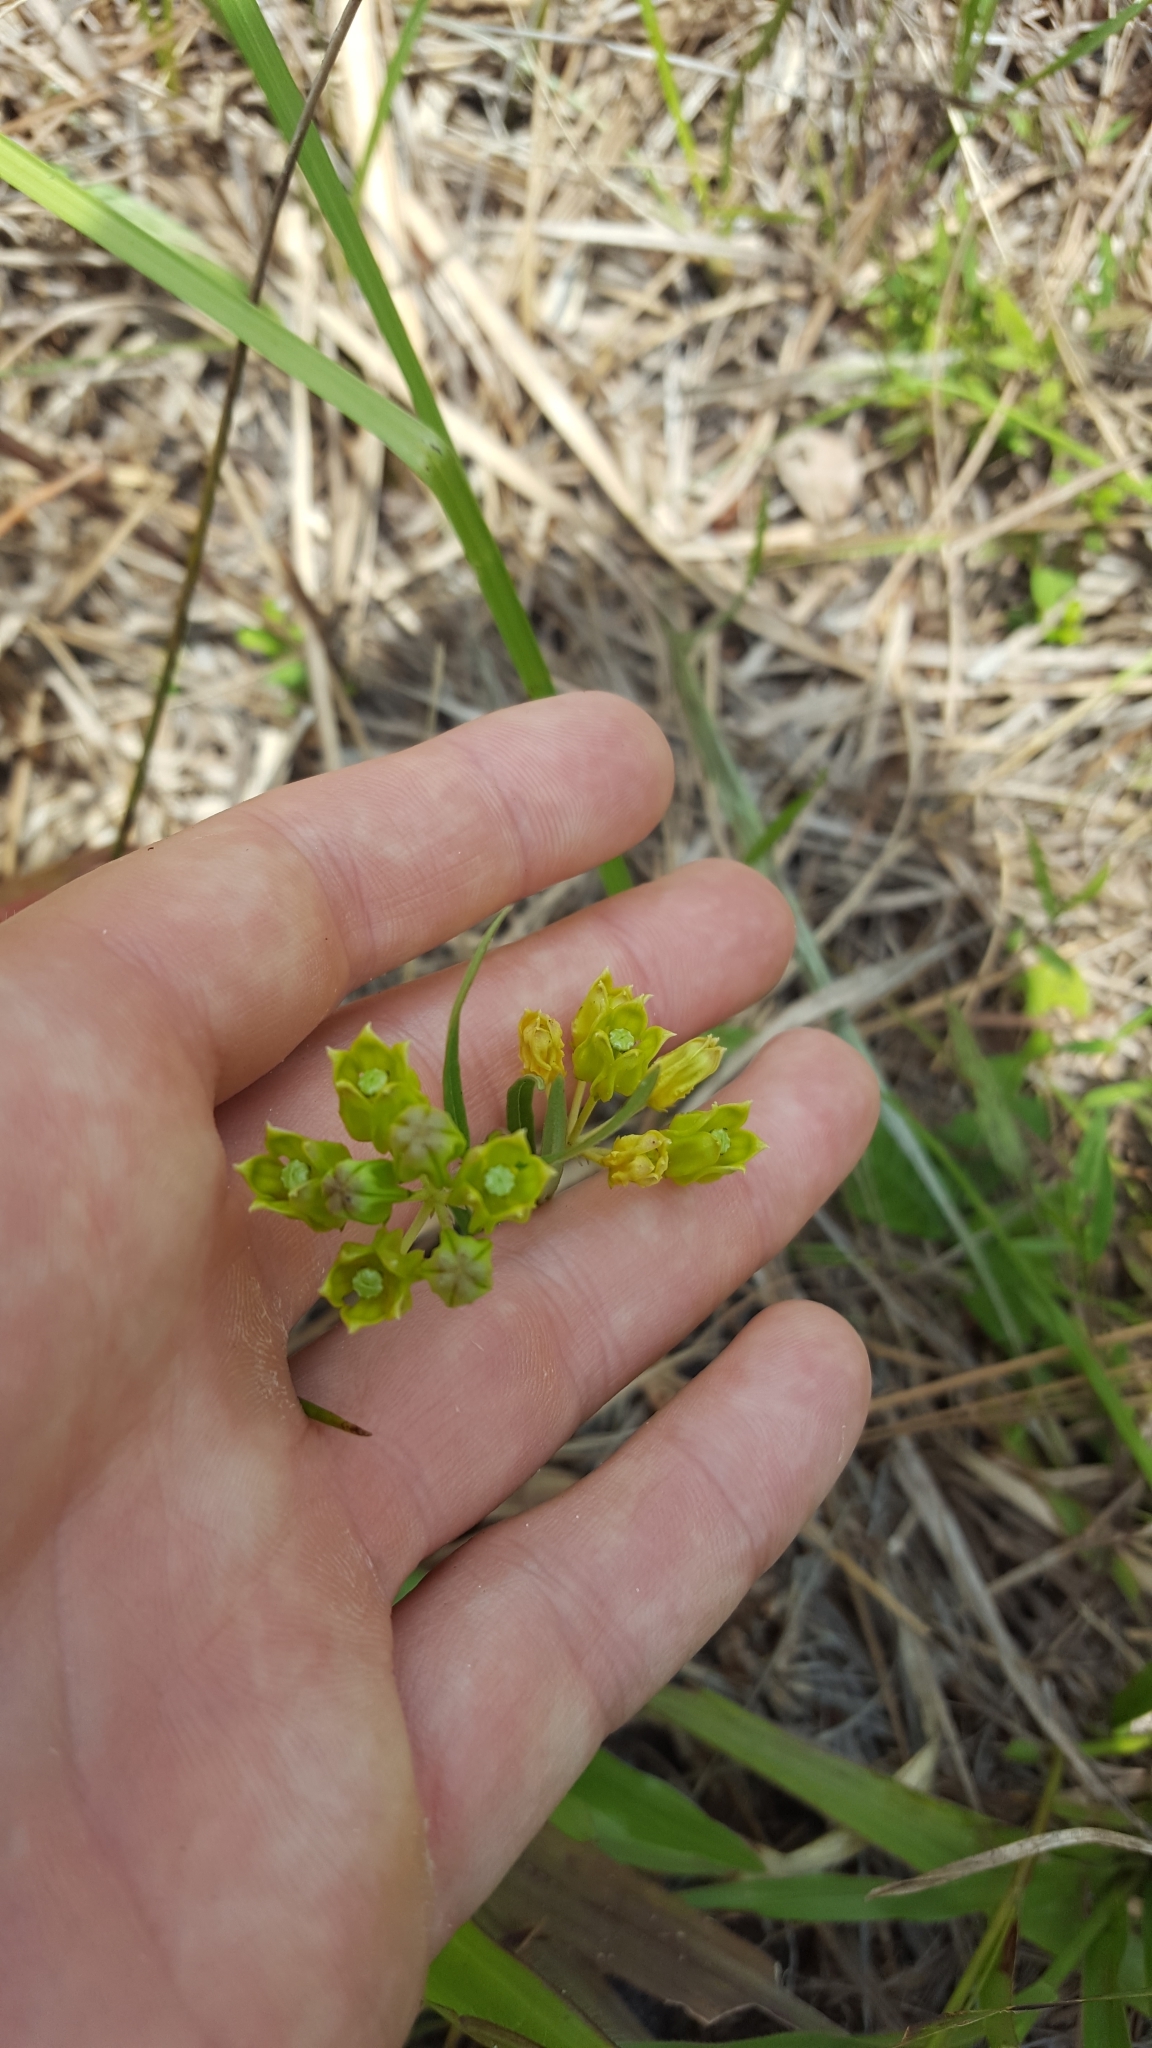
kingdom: Plantae
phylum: Tracheophyta
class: Magnoliopsida
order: Gentianales
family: Apocynaceae
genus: Asclepias
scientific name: Asclepias pedicellata
